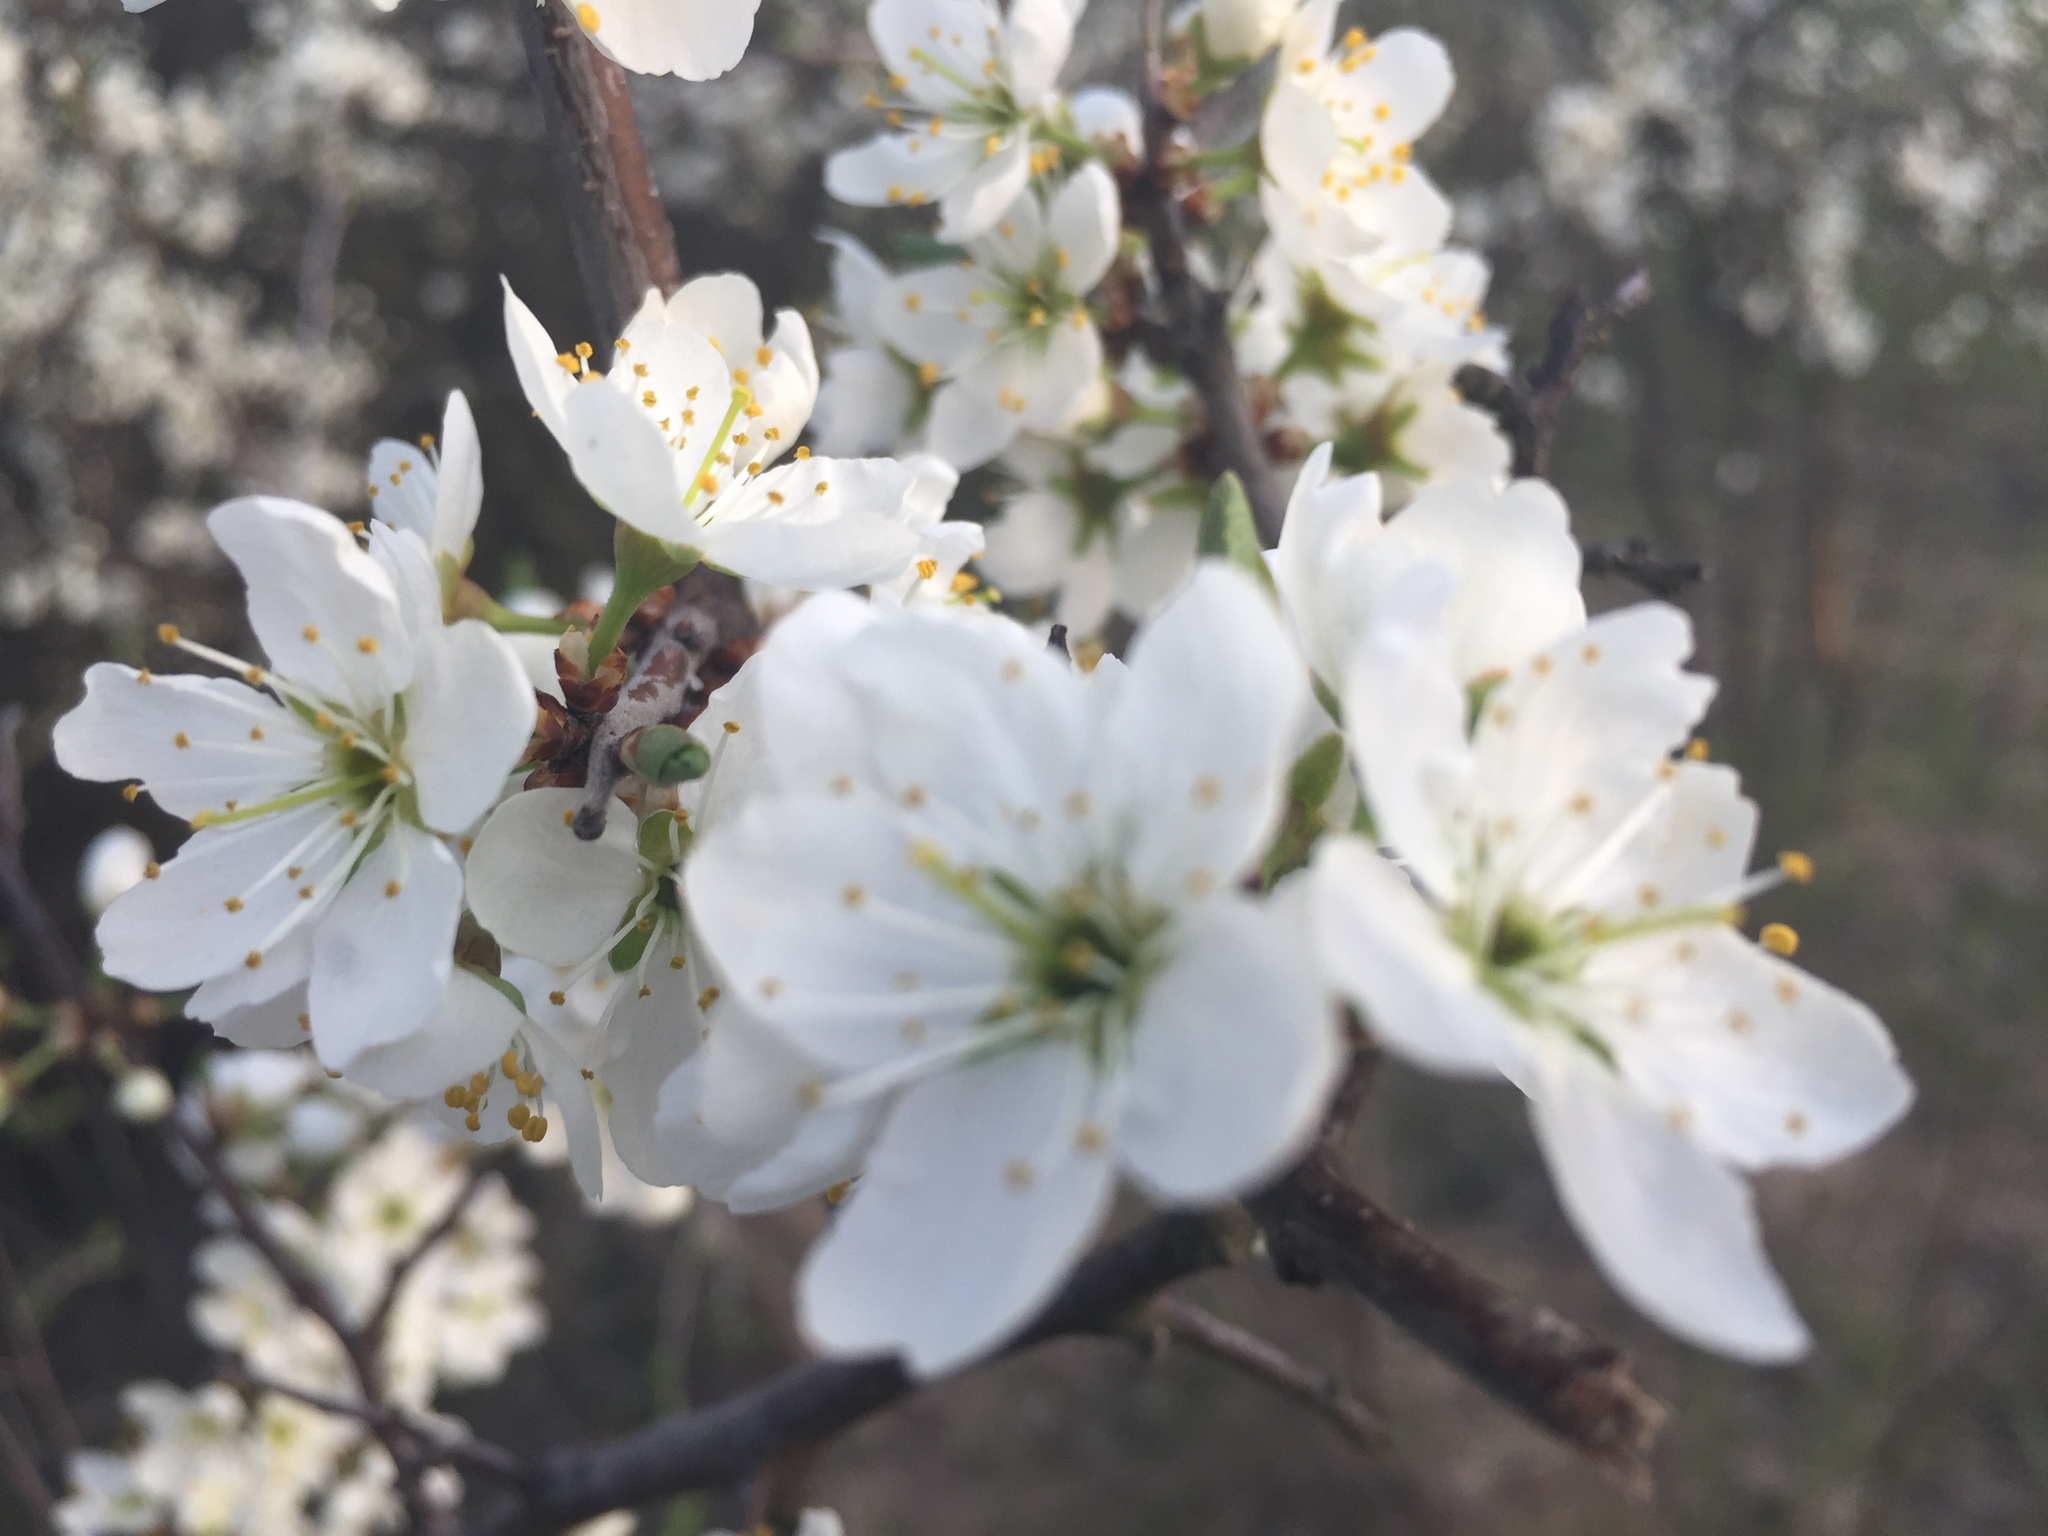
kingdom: Plantae
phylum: Tracheophyta
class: Magnoliopsida
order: Rosales
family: Rosaceae
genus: Prunus
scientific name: Prunus spinosa
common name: Blackthorn
